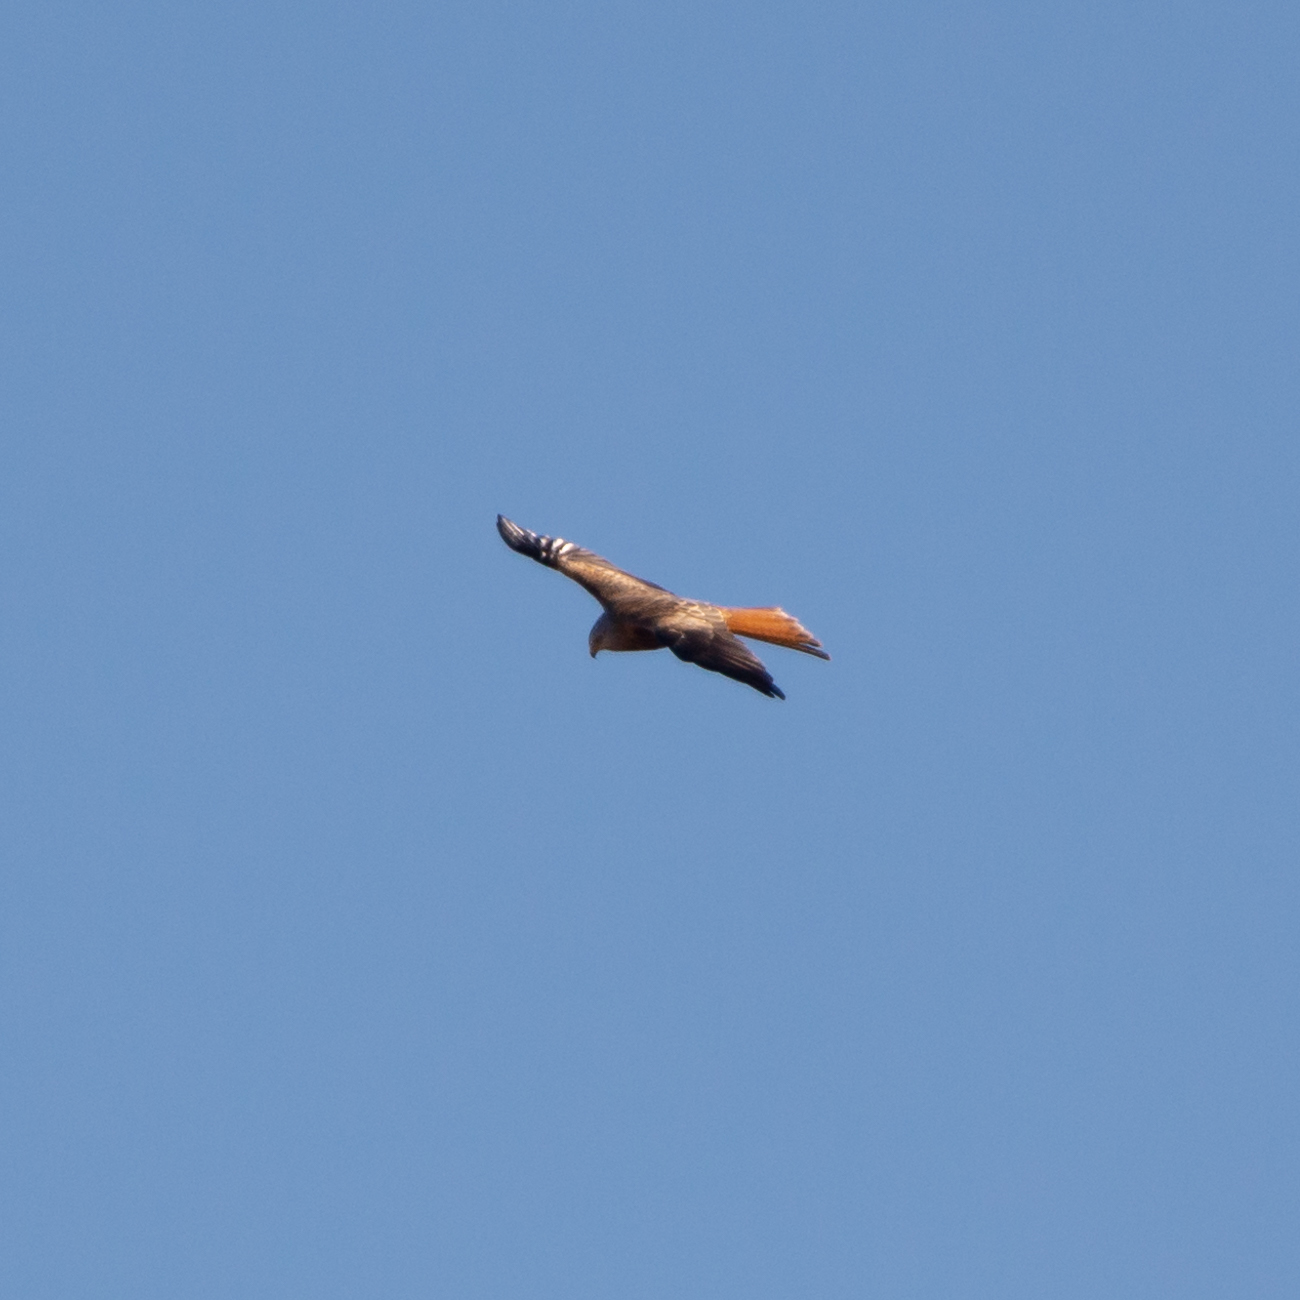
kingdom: Animalia
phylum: Chordata
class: Aves
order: Accipitriformes
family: Accipitridae
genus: Milvus
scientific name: Milvus milvus
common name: Red kite
